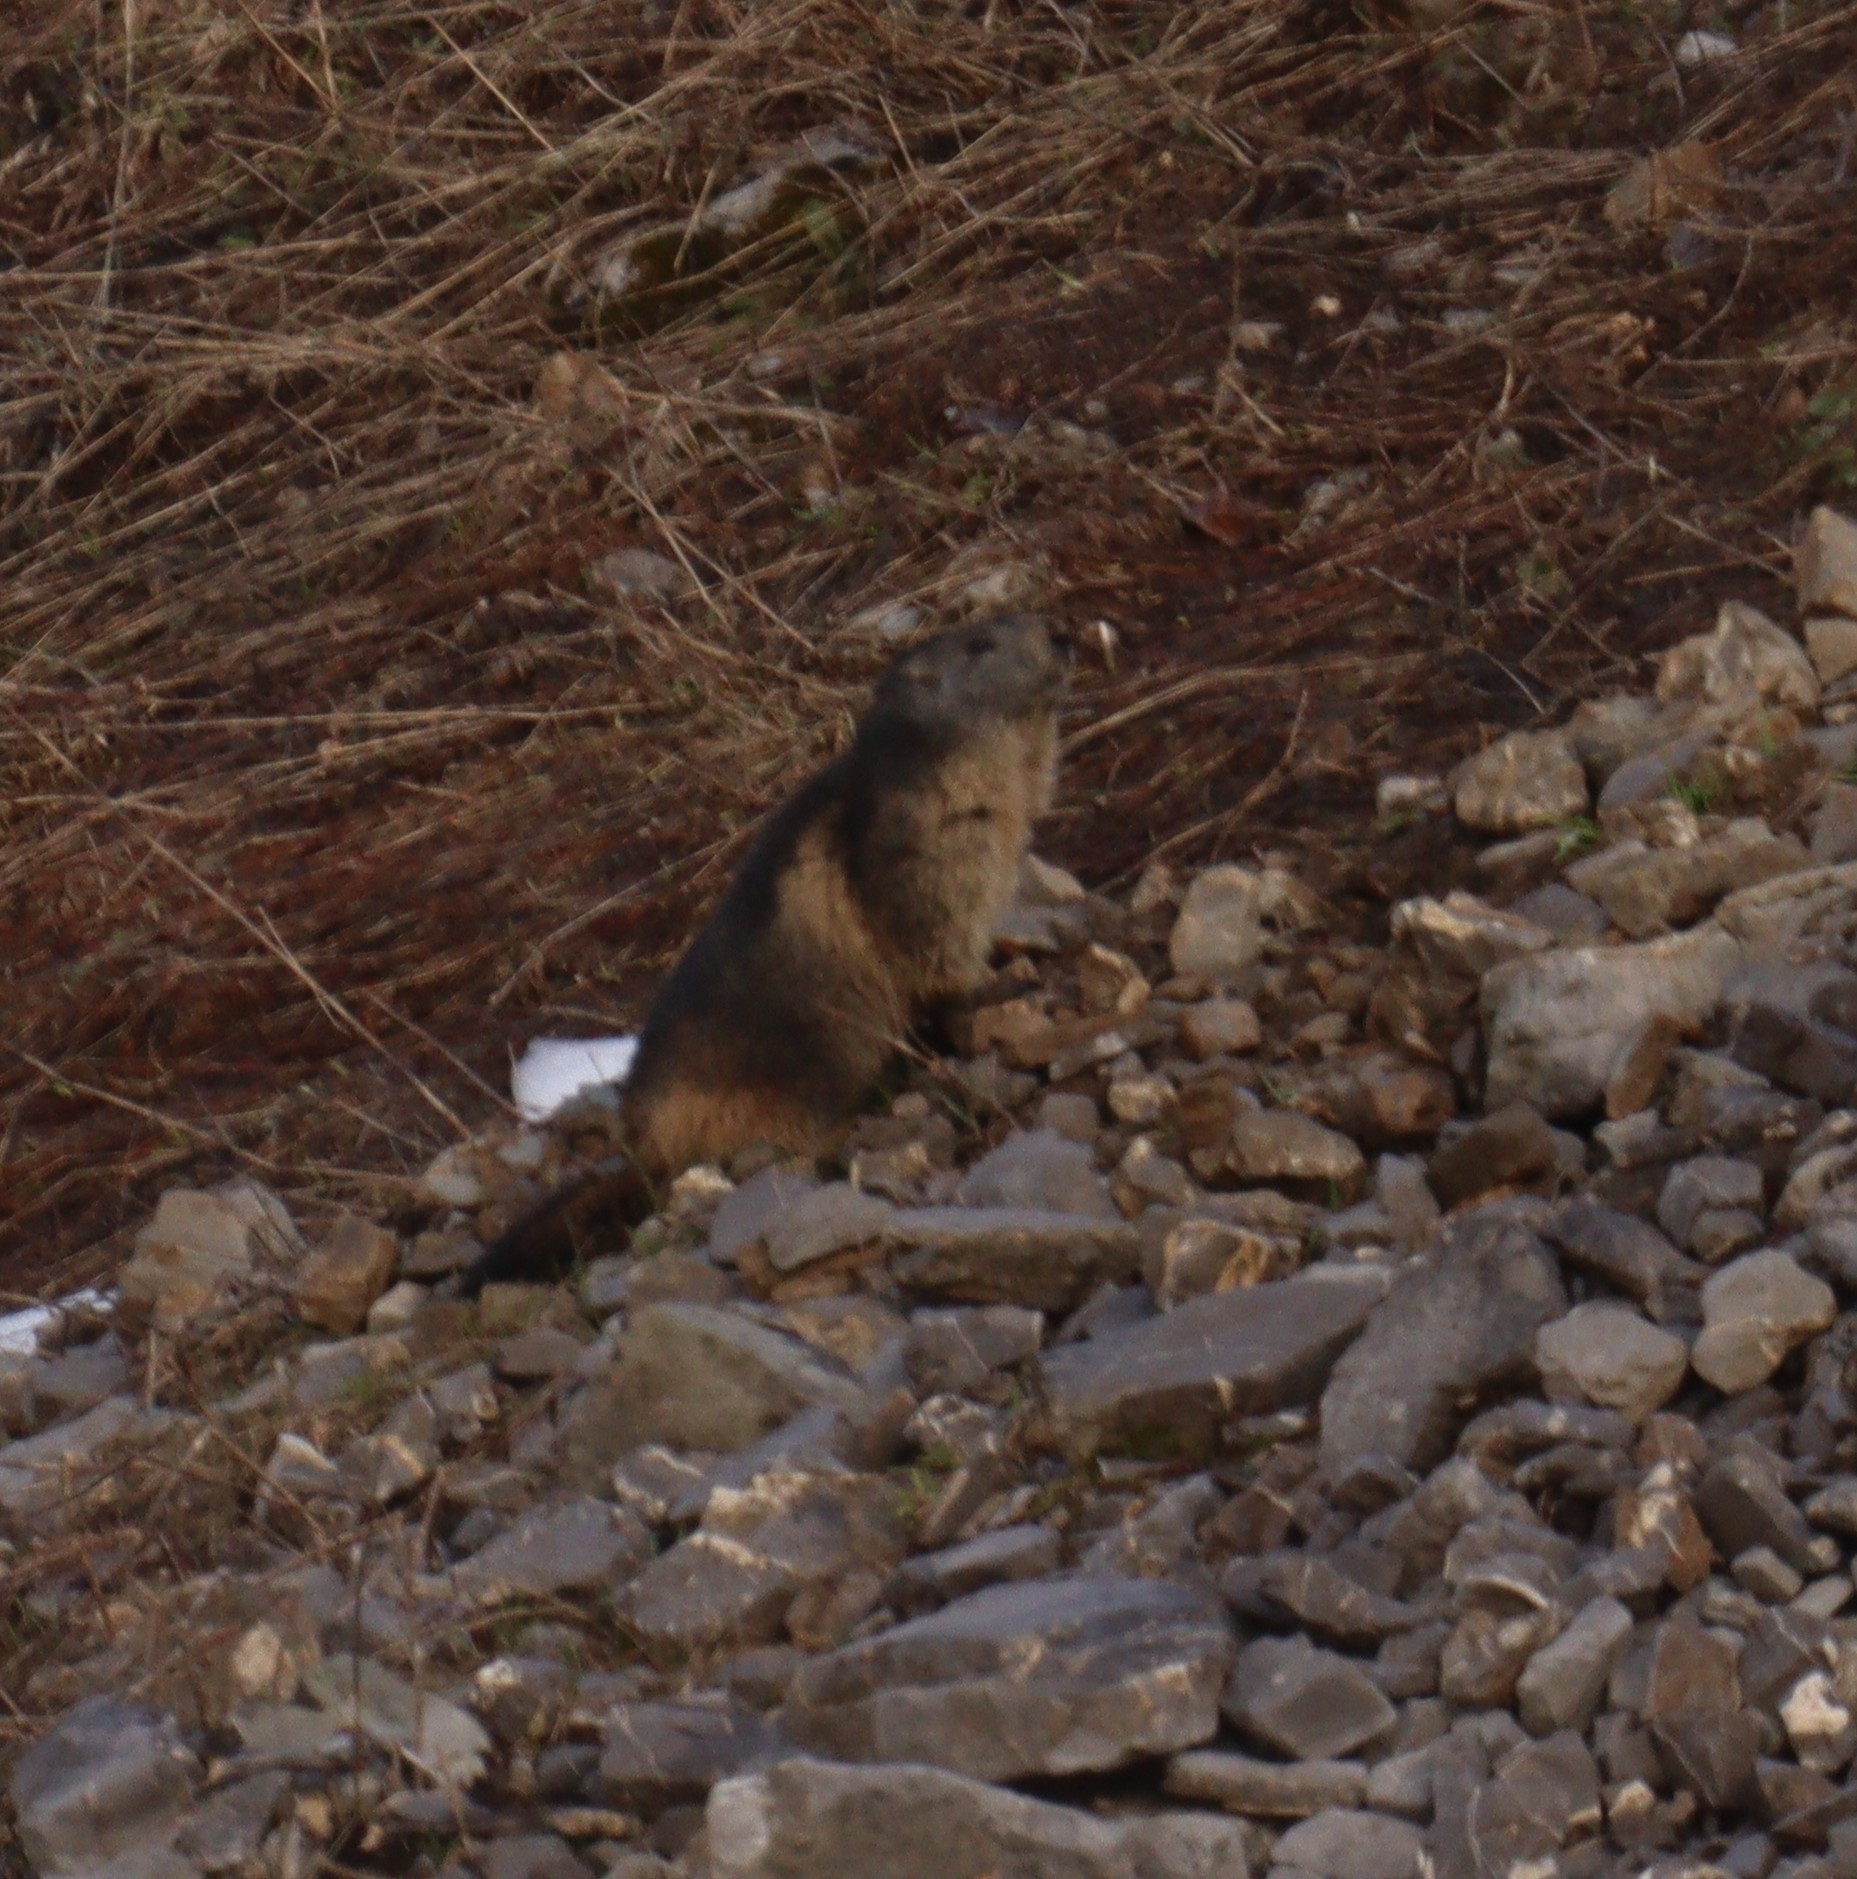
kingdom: Animalia
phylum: Chordata
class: Mammalia
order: Rodentia
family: Sciuridae
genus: Marmota
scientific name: Marmota marmota
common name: Alpine marmot
